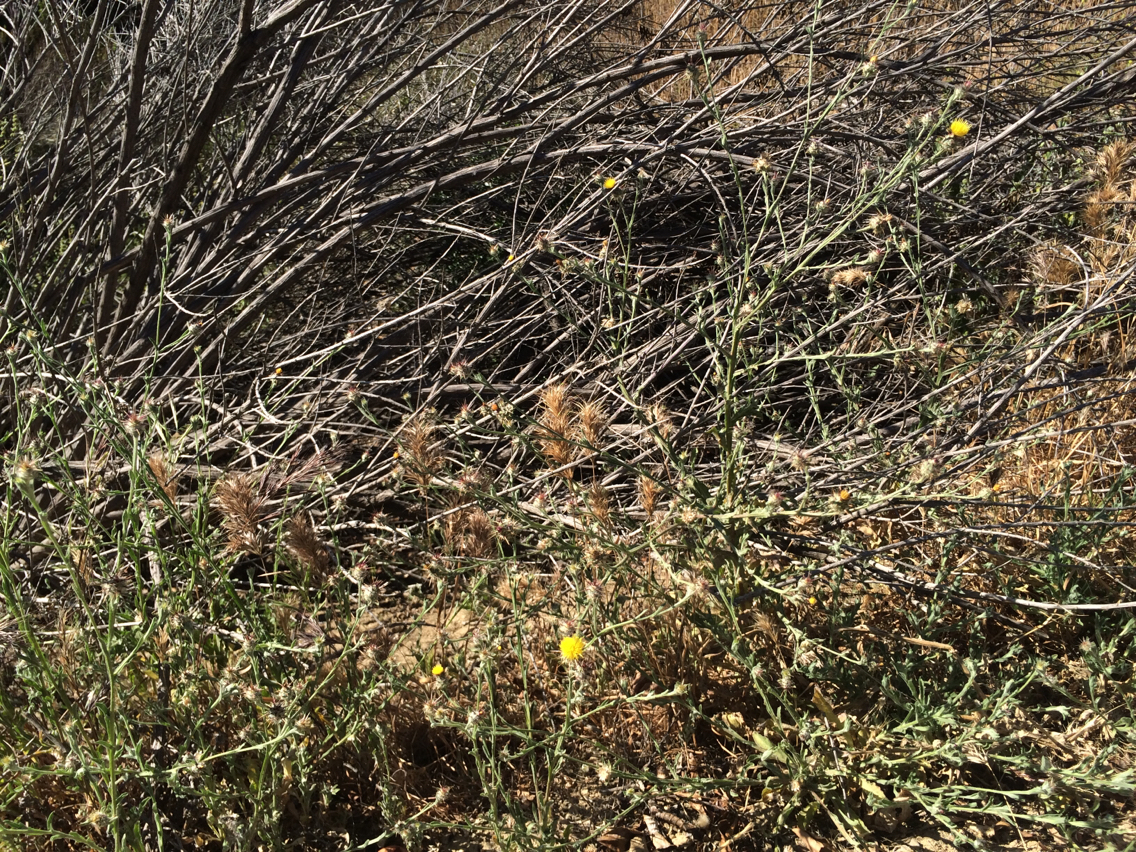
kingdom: Plantae
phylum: Tracheophyta
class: Magnoliopsida
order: Asterales
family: Asteraceae
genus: Centaurea
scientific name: Centaurea melitensis
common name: Maltese star-thistle
